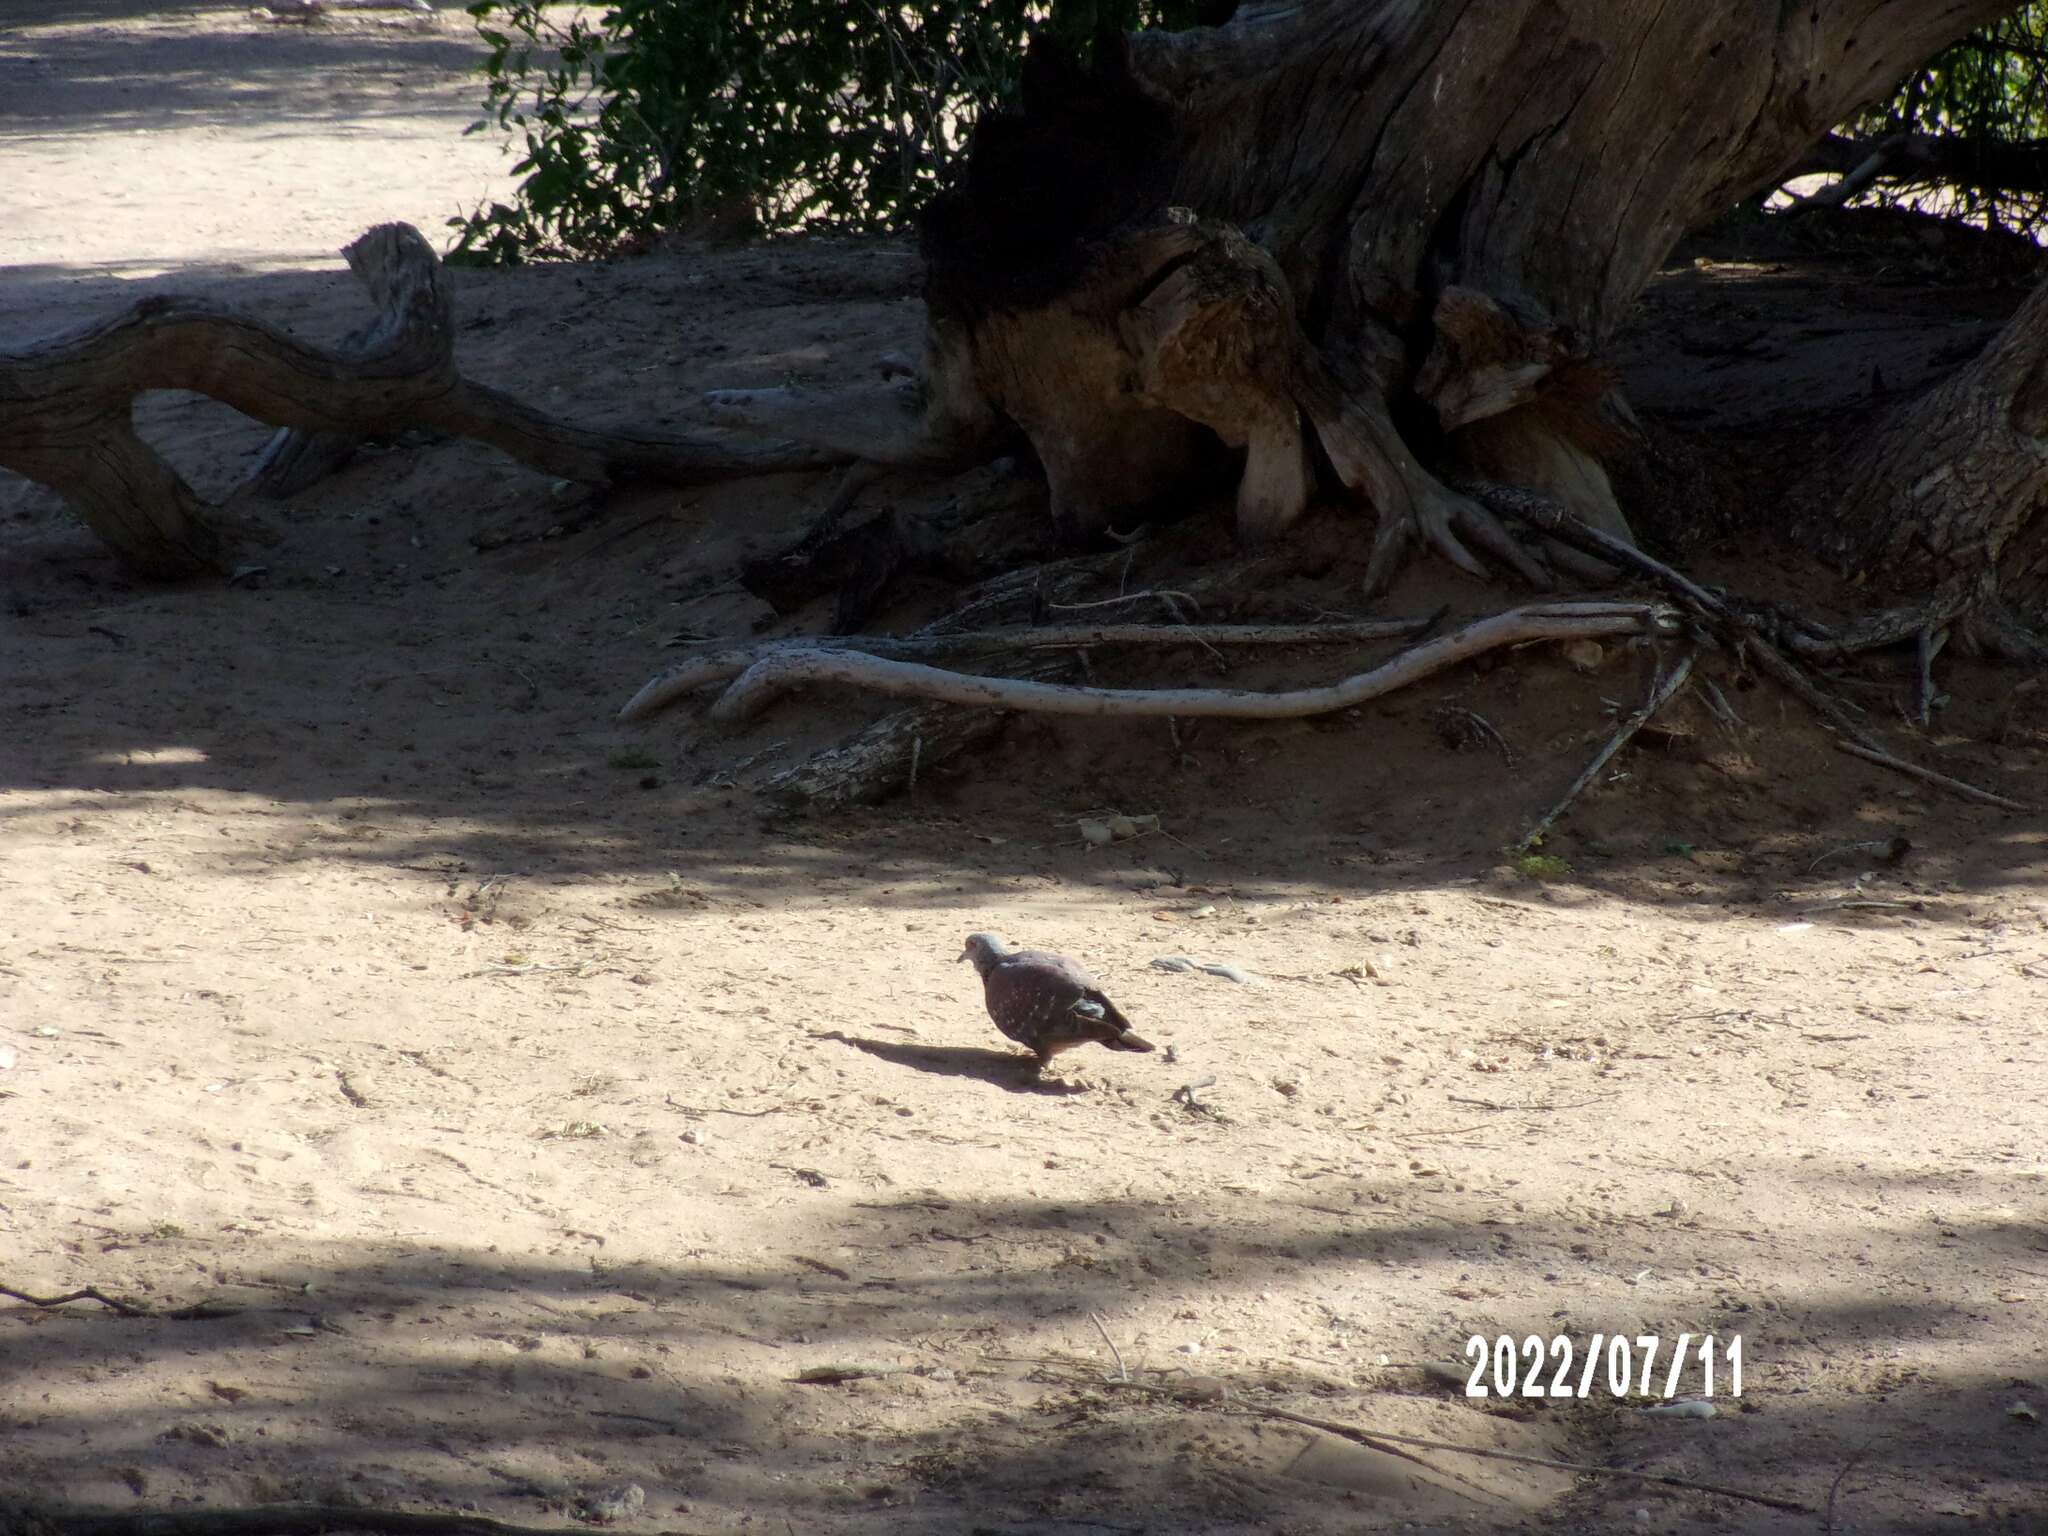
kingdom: Animalia
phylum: Chordata
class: Aves
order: Columbiformes
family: Columbidae
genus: Columba
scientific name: Columba guinea
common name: Speckled pigeon
